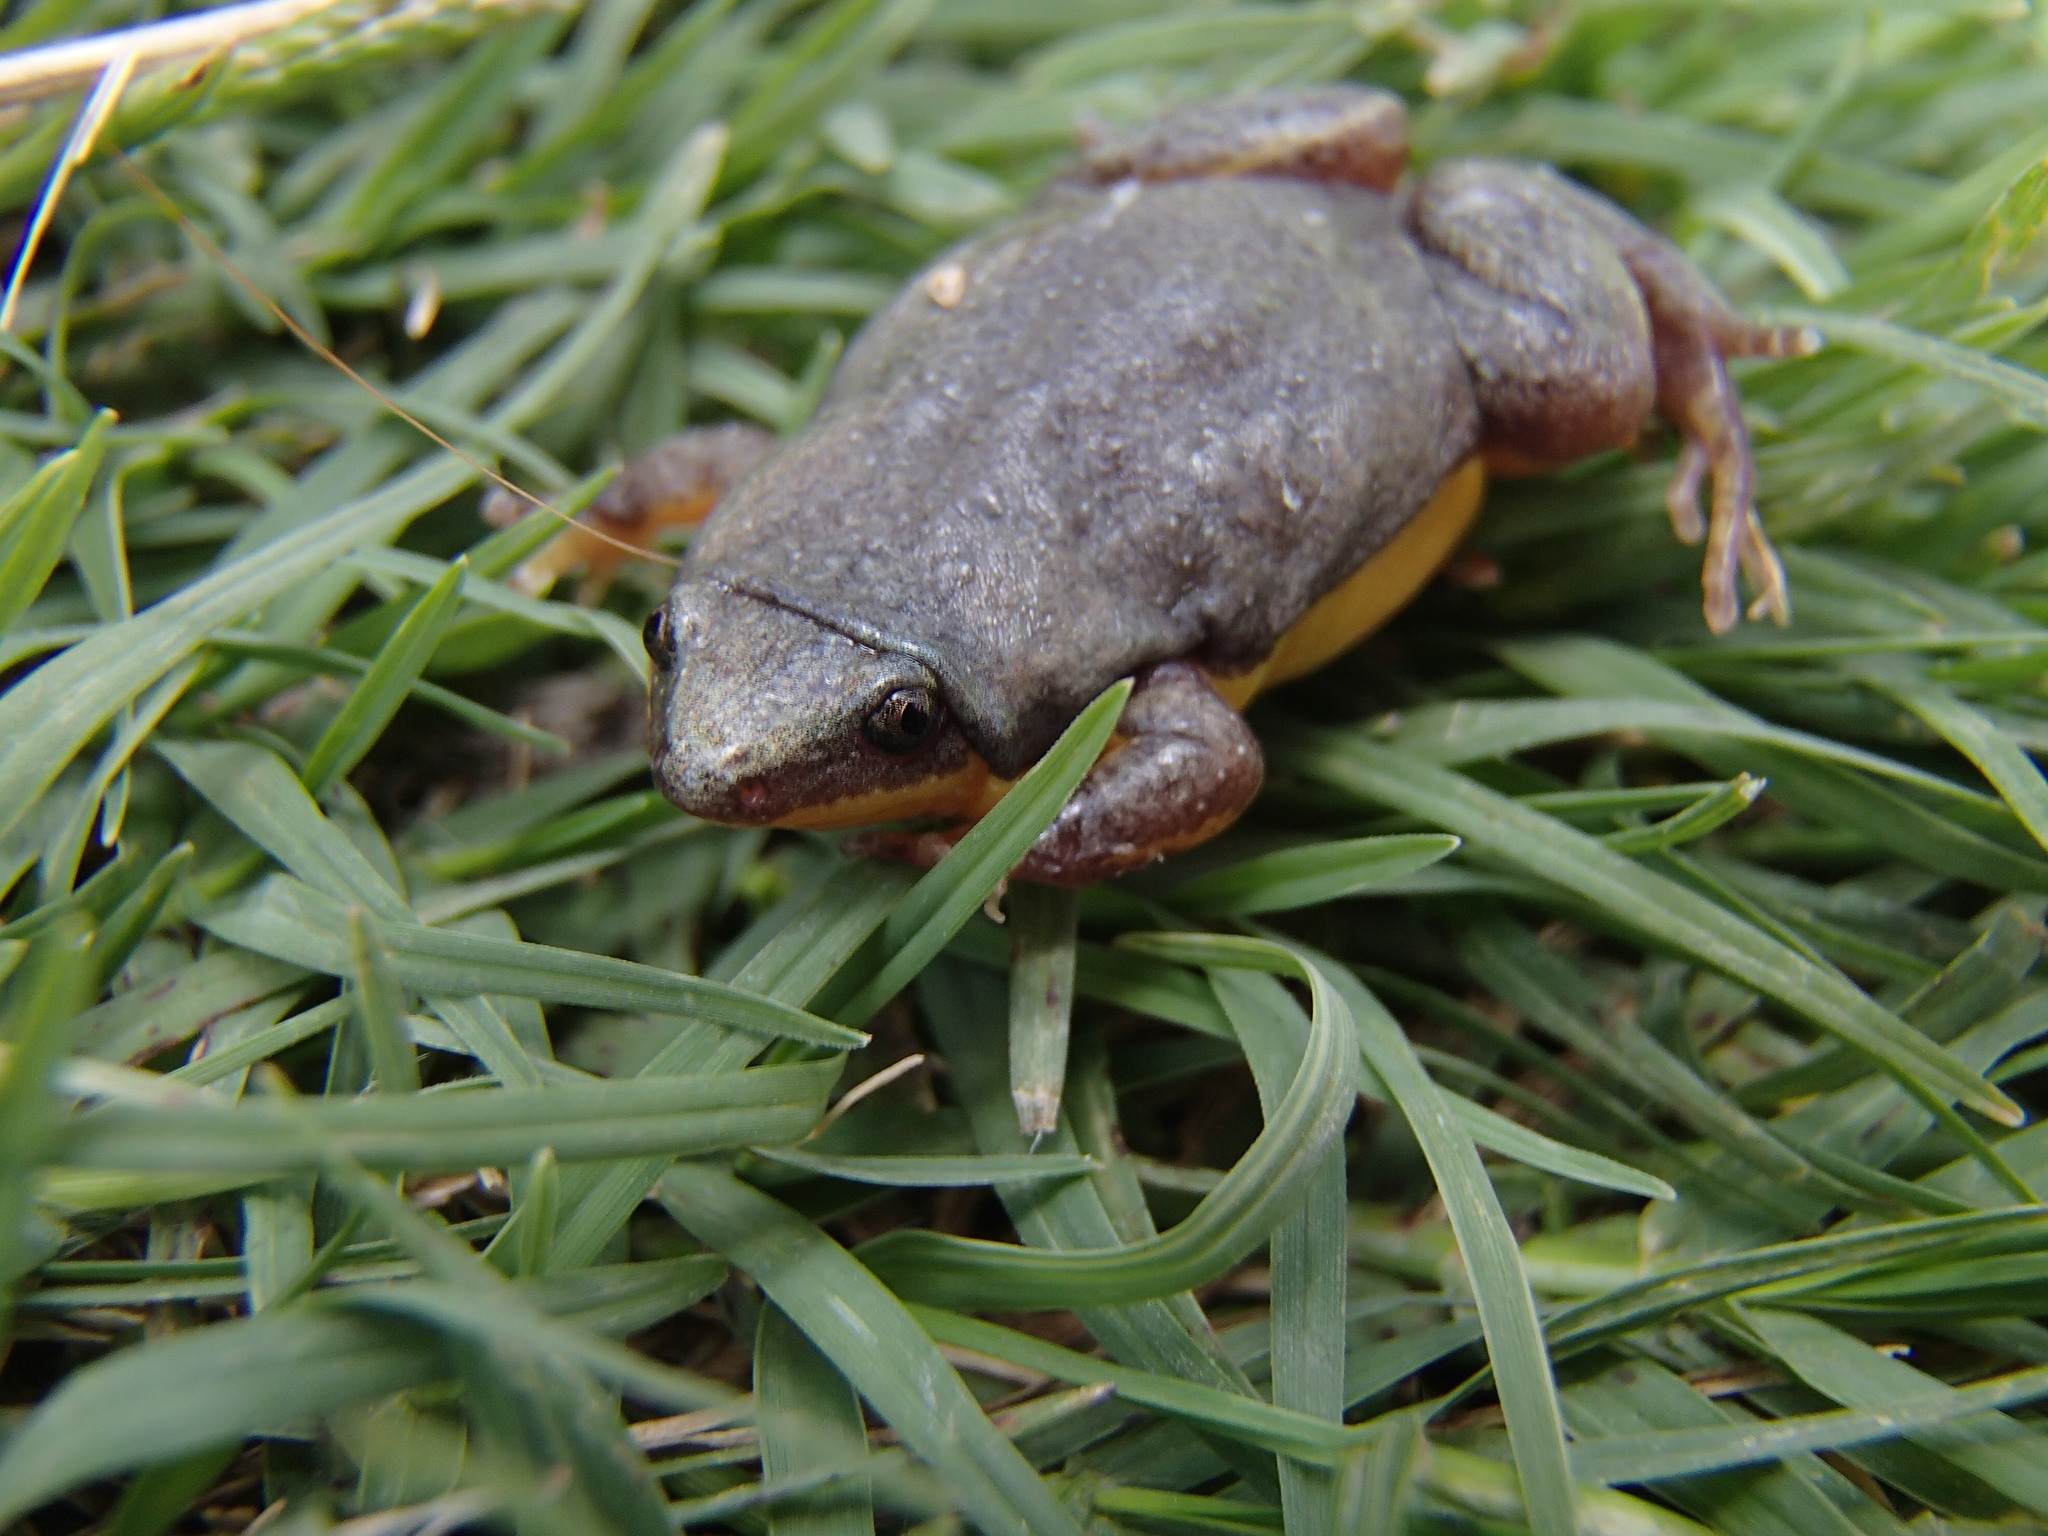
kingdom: Animalia
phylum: Chordata
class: Amphibia
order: Anura
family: Microhylidae
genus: Elachistocleis
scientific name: Elachistocleis bicolor
